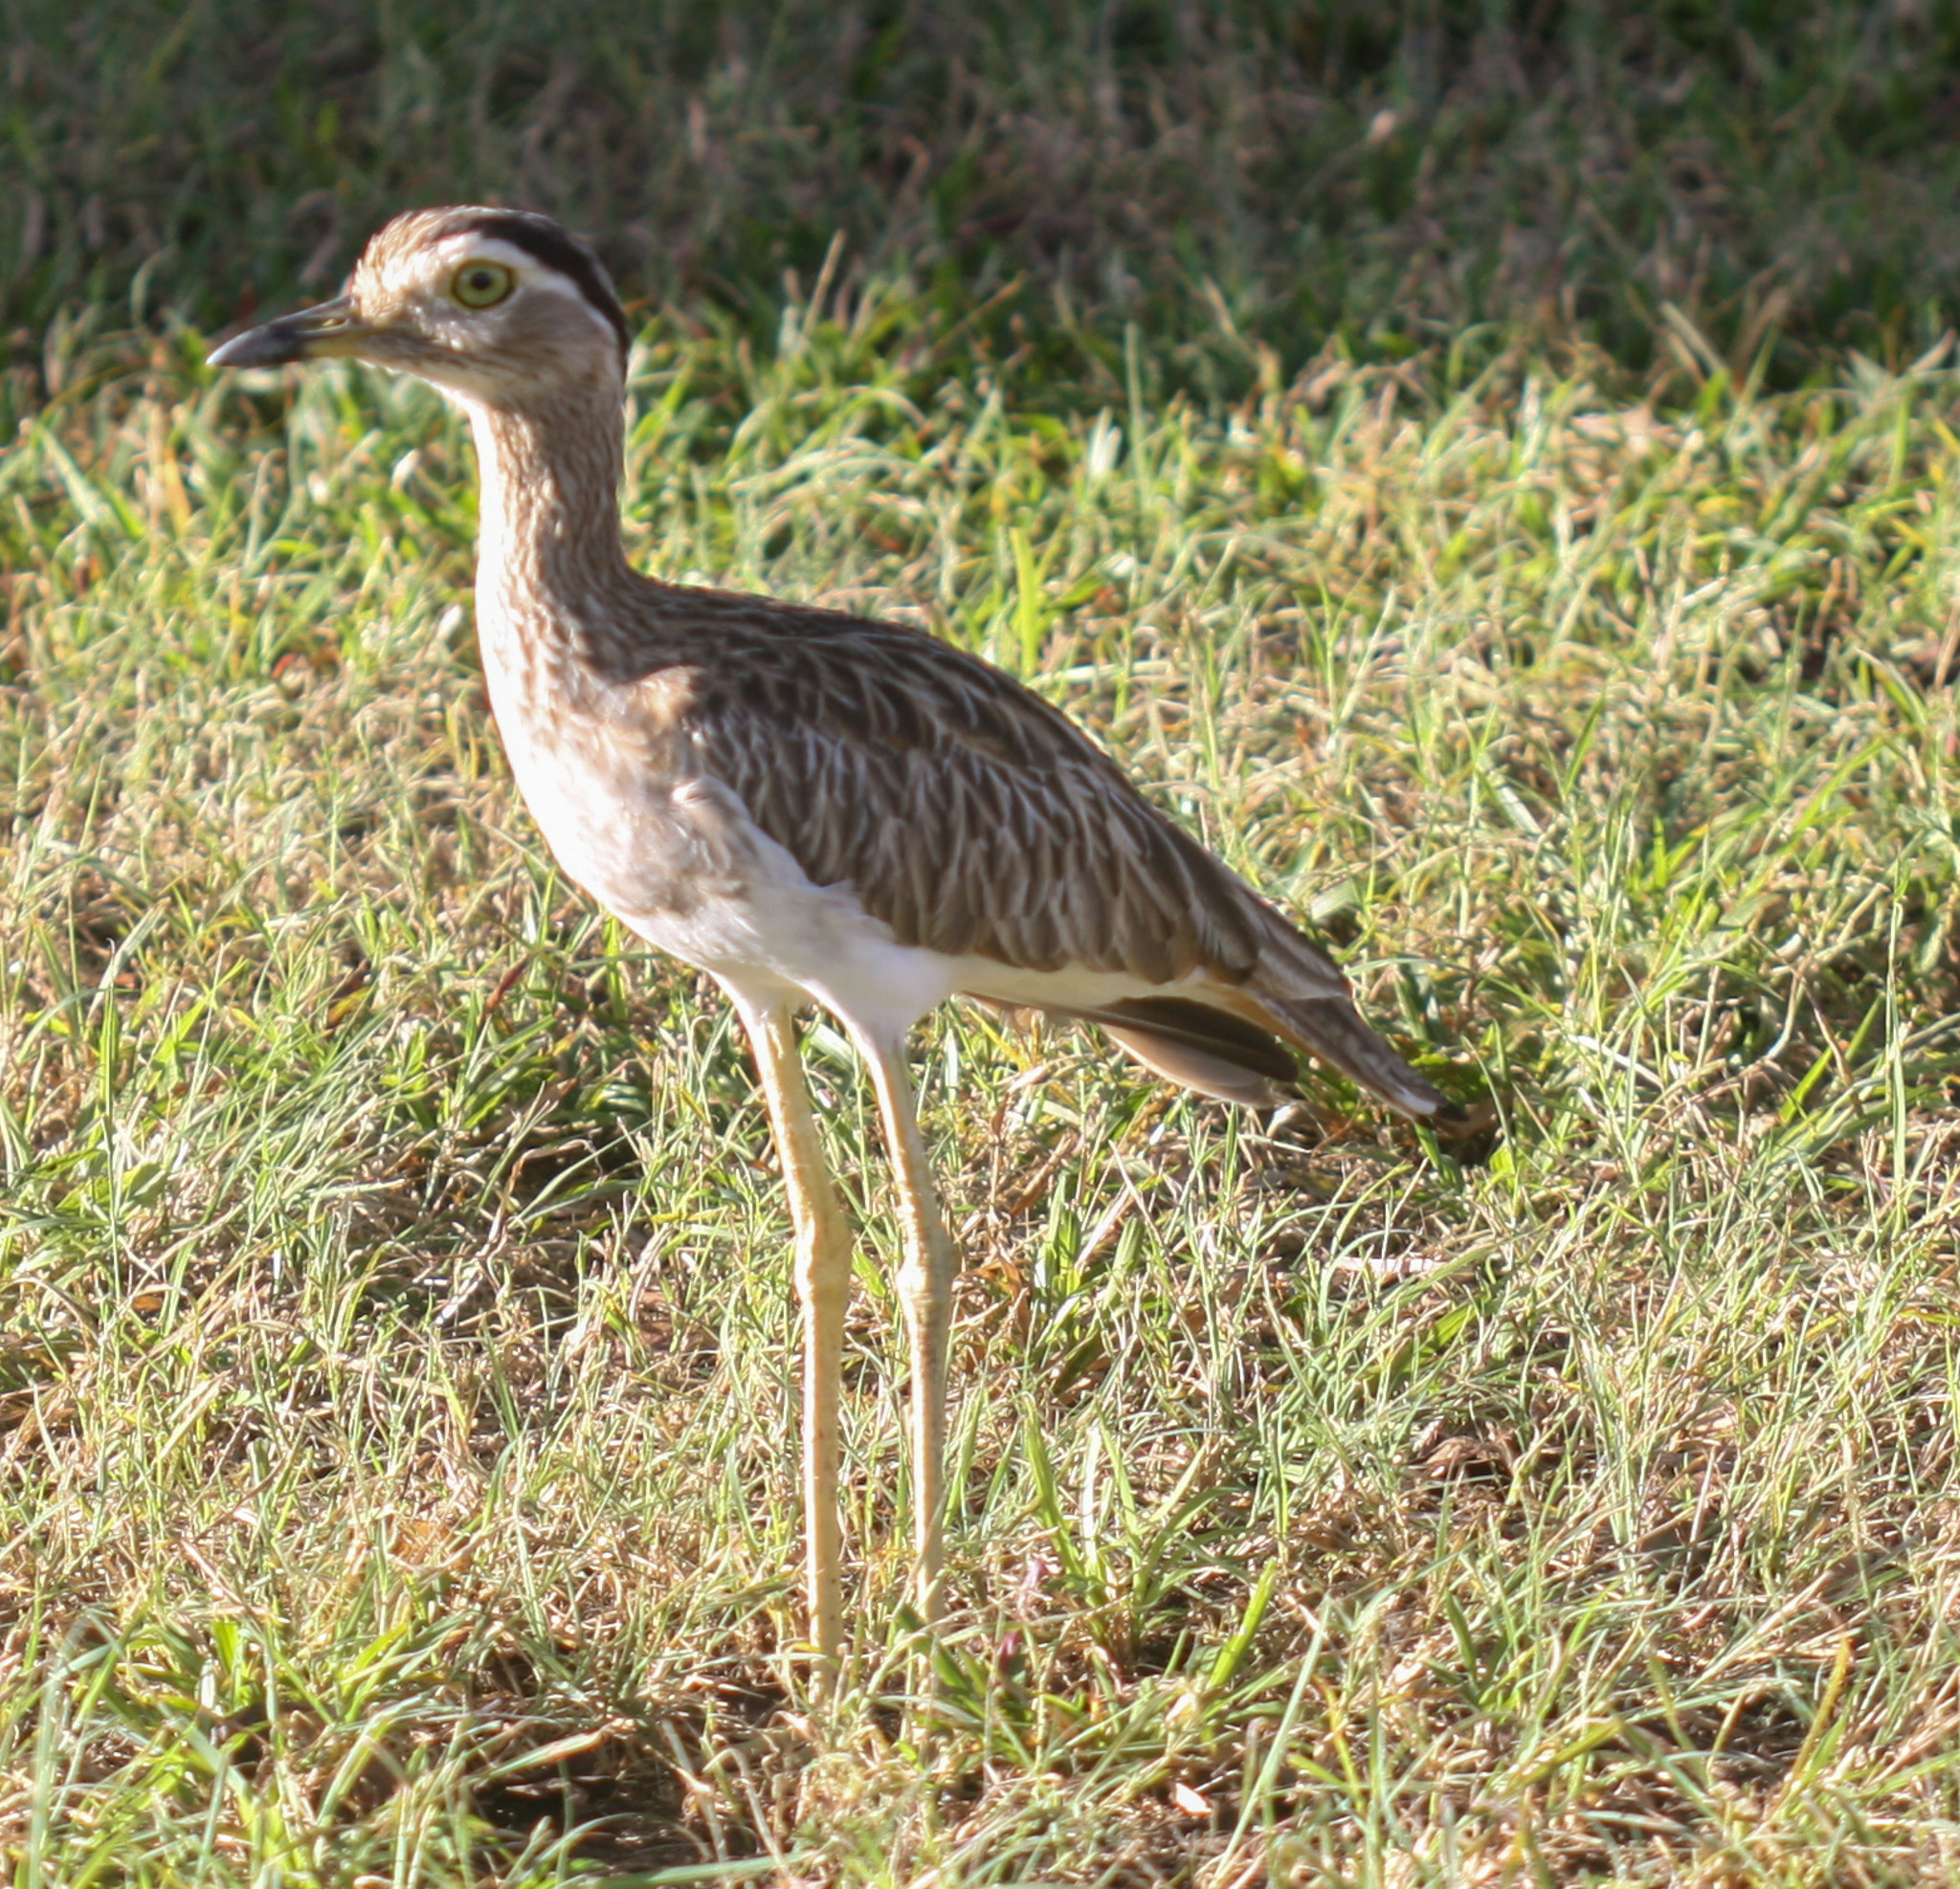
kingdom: Animalia
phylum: Chordata
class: Aves
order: Charadriiformes
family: Burhinidae
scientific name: Burhinidae
